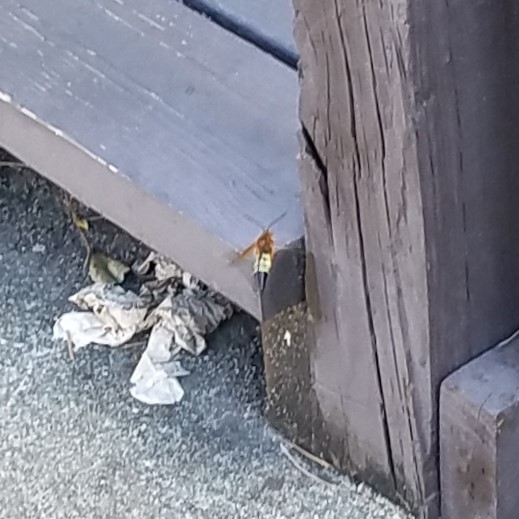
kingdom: Animalia
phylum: Arthropoda
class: Insecta
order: Hymenoptera
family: Crabronidae
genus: Sphecius
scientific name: Sphecius speciosus
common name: Cicada killer
